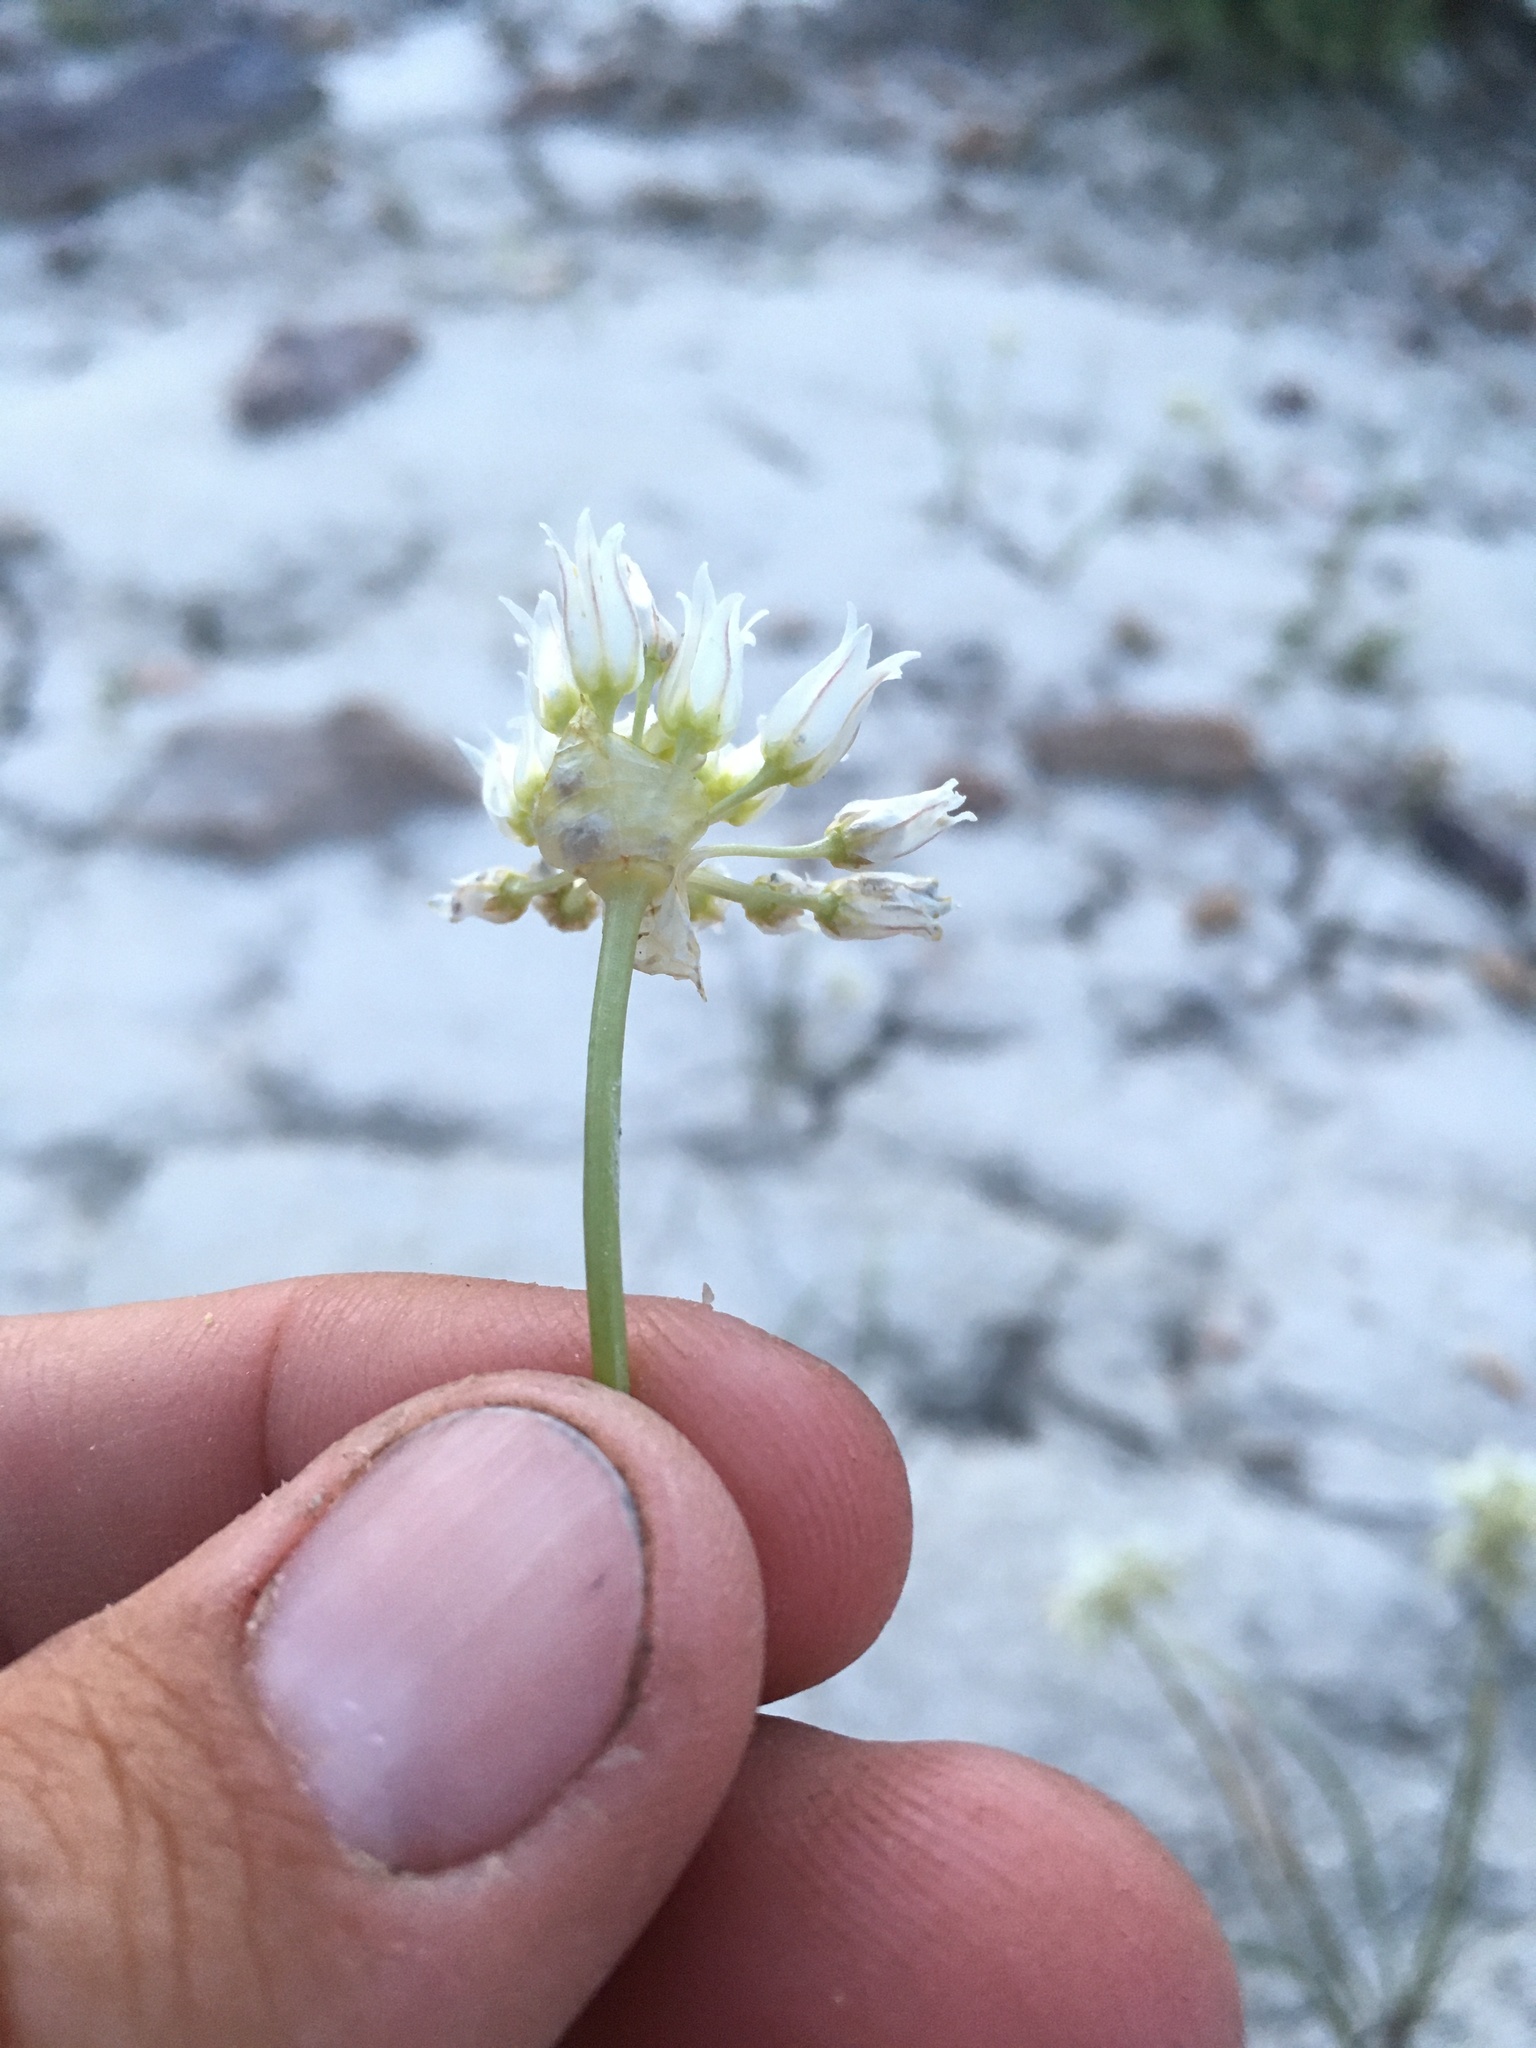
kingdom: Plantae
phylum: Tracheophyta
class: Liliopsida
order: Asparagales
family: Amaryllidaceae
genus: Allium
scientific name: Allium textile
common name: Prairie onion
